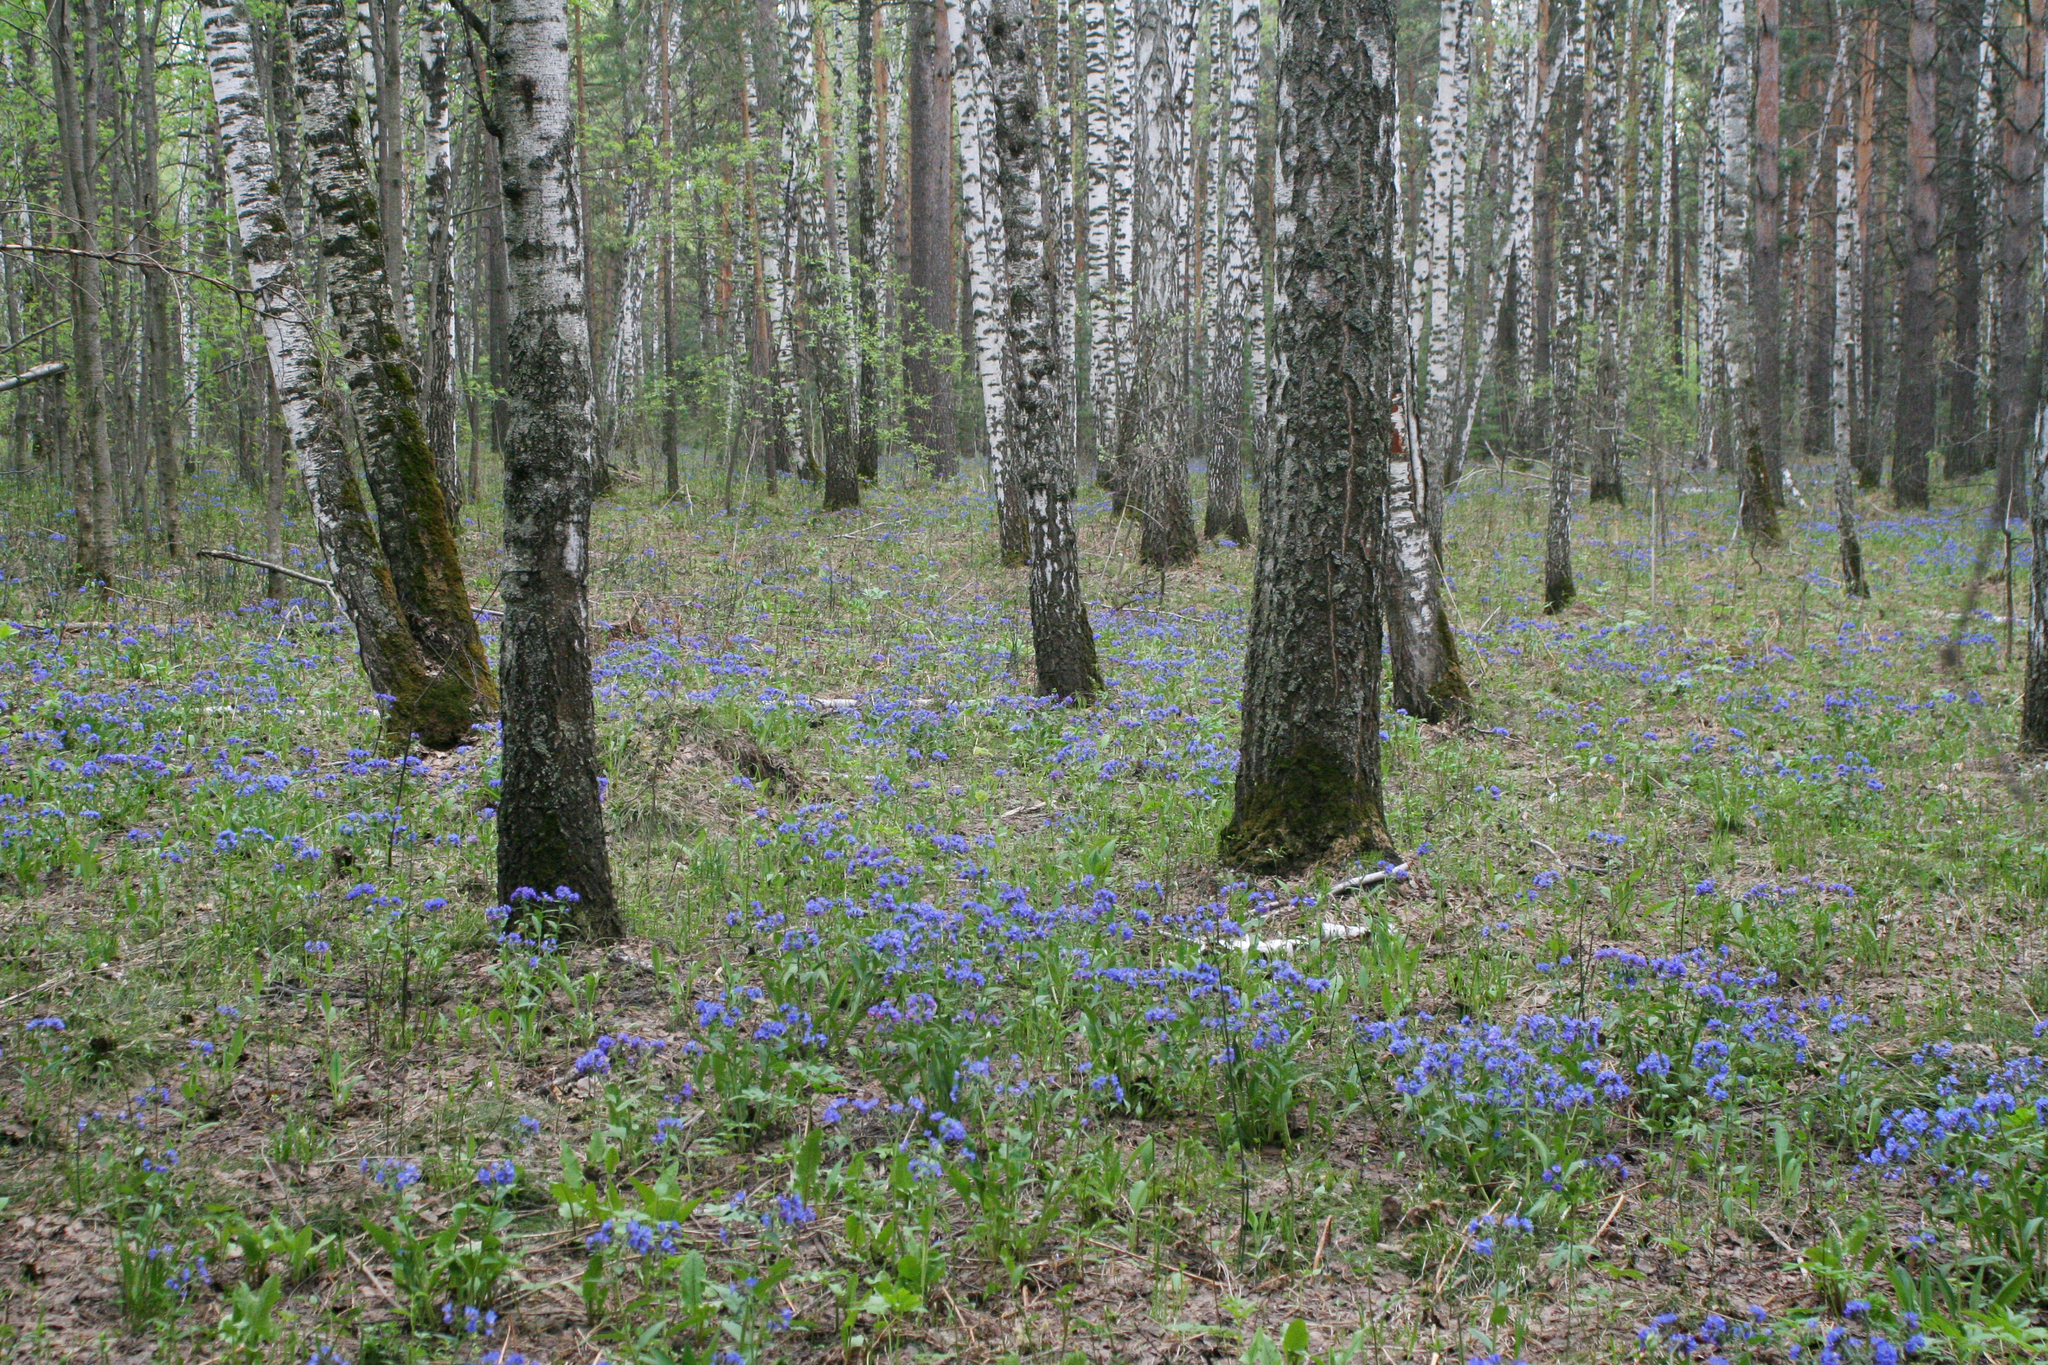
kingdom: Plantae
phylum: Tracheophyta
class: Magnoliopsida
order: Fagales
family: Betulaceae
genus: Betula
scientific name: Betula pendula
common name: Silver birch
